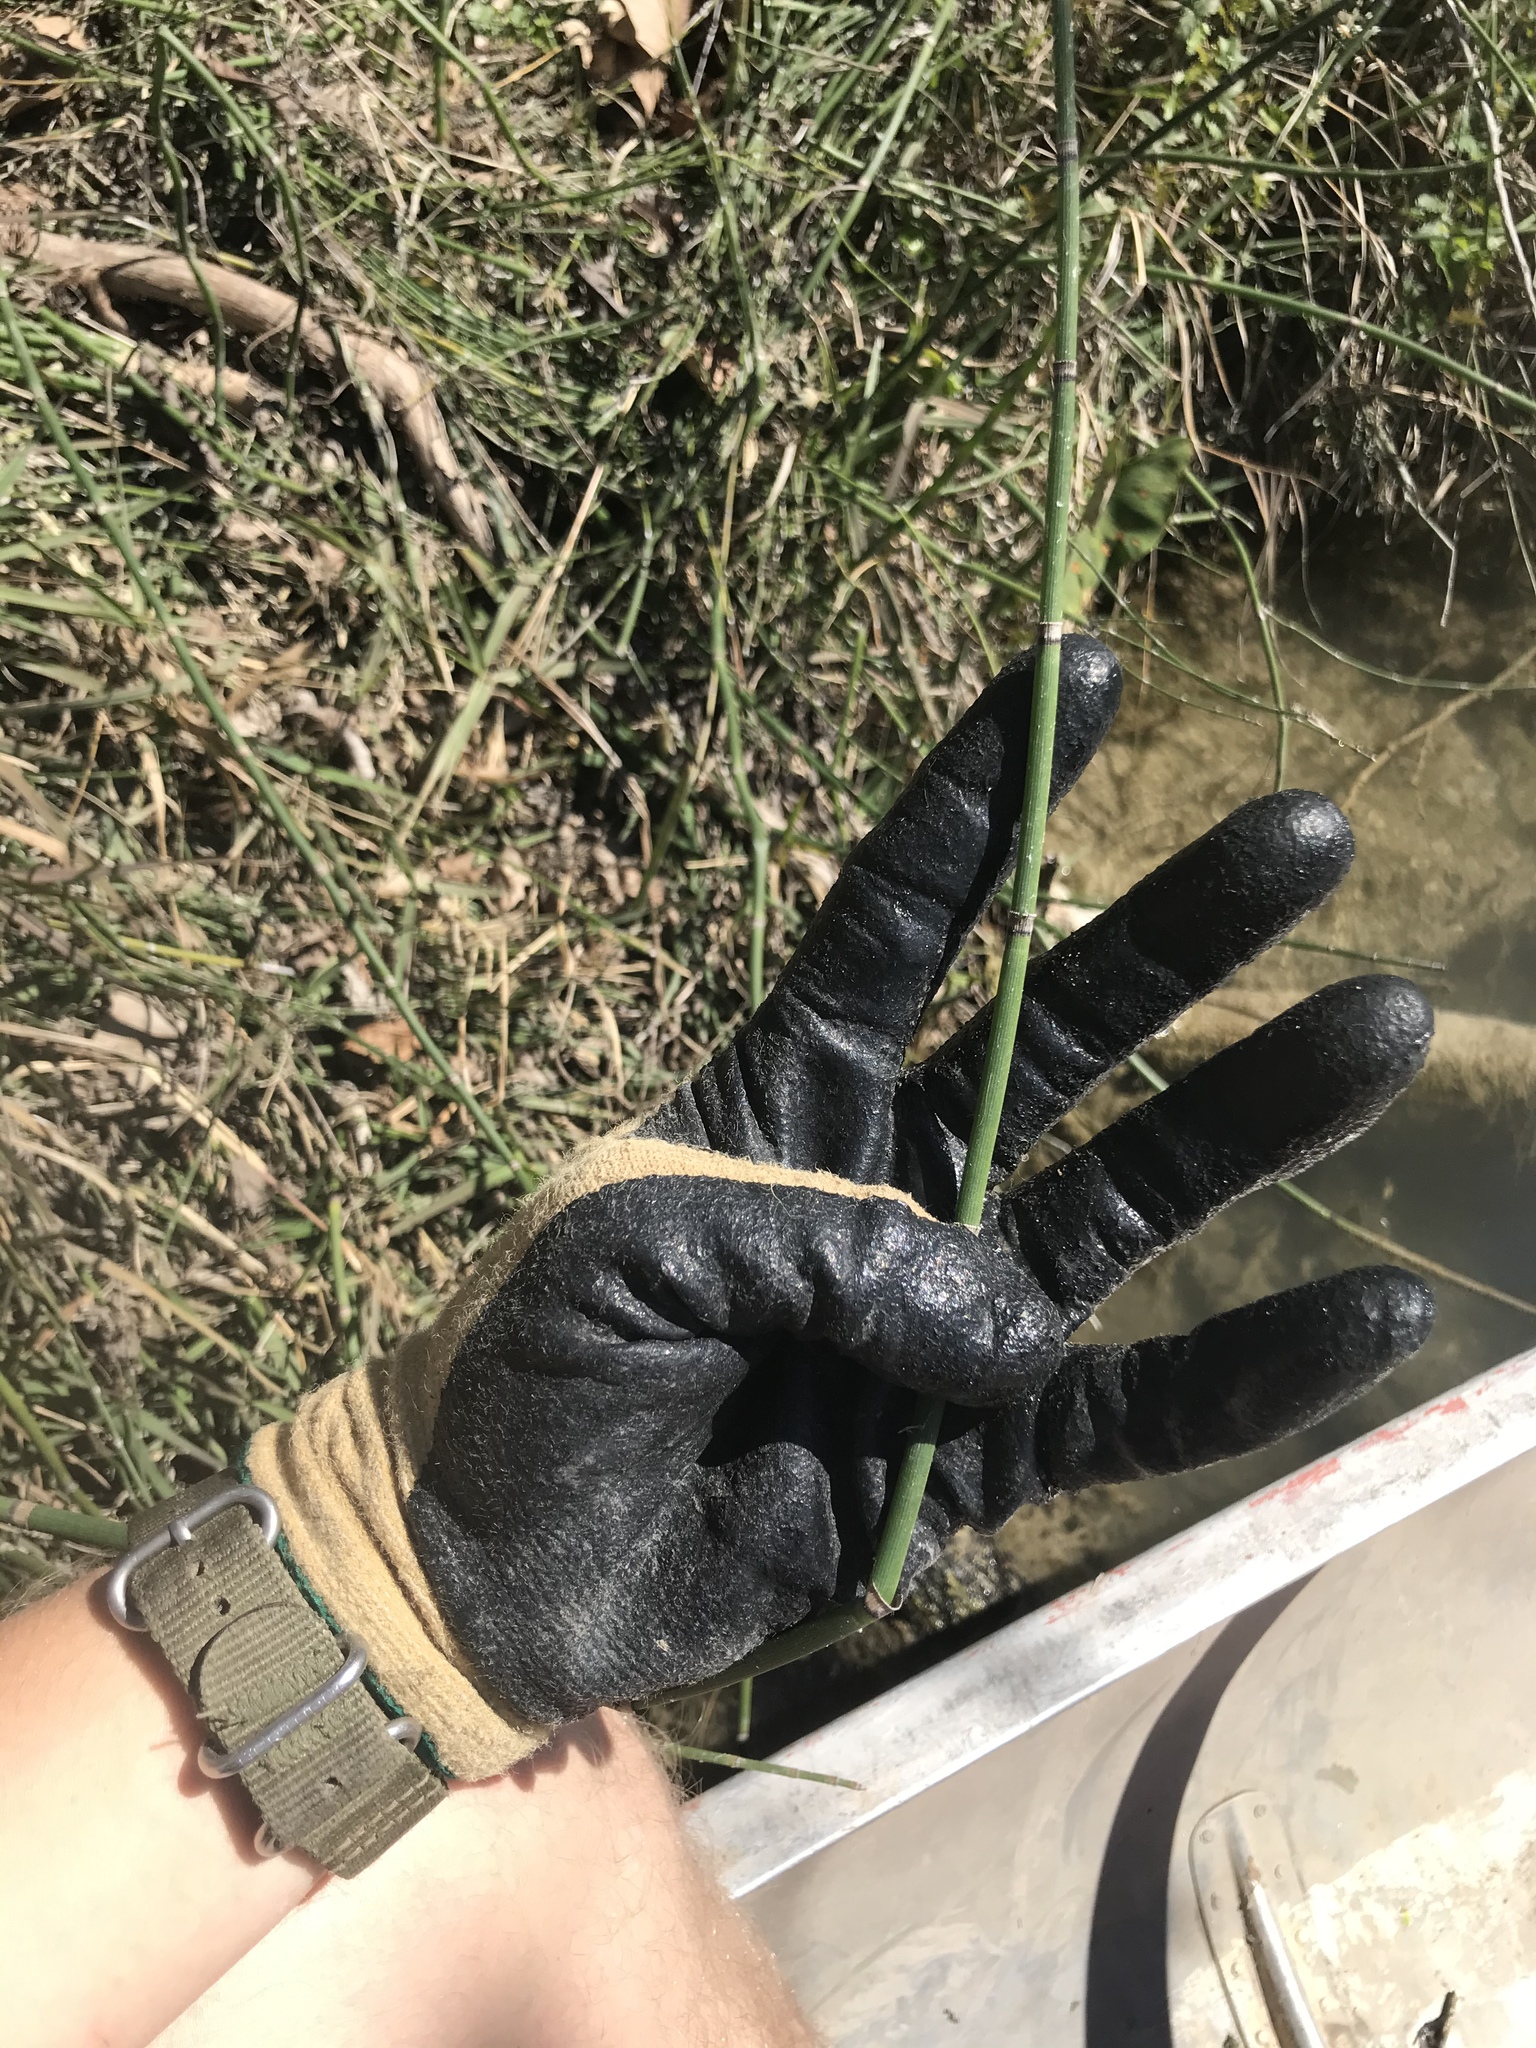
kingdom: Plantae
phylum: Tracheophyta
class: Polypodiopsida
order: Equisetales
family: Equisetaceae
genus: Equisetum
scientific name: Equisetum praealtum
